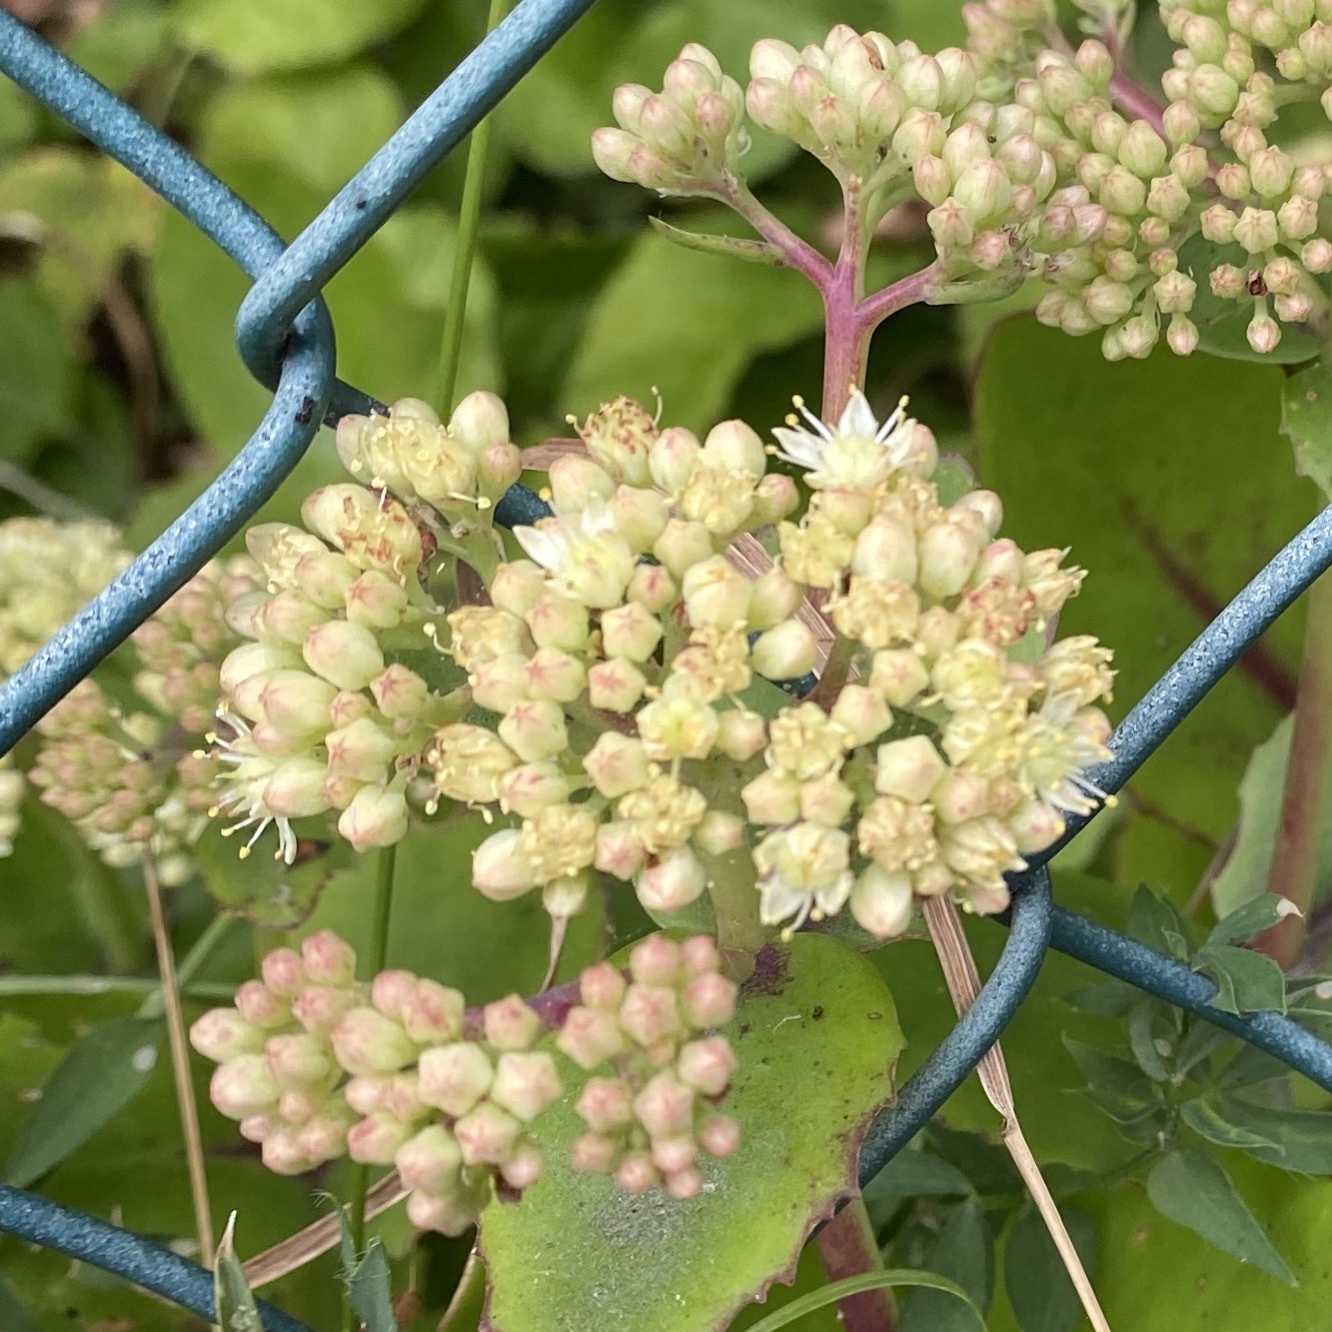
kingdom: Plantae
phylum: Tracheophyta
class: Magnoliopsida
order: Saxifragales
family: Crassulaceae
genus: Hylotelephium
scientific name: Hylotelephium maximum
